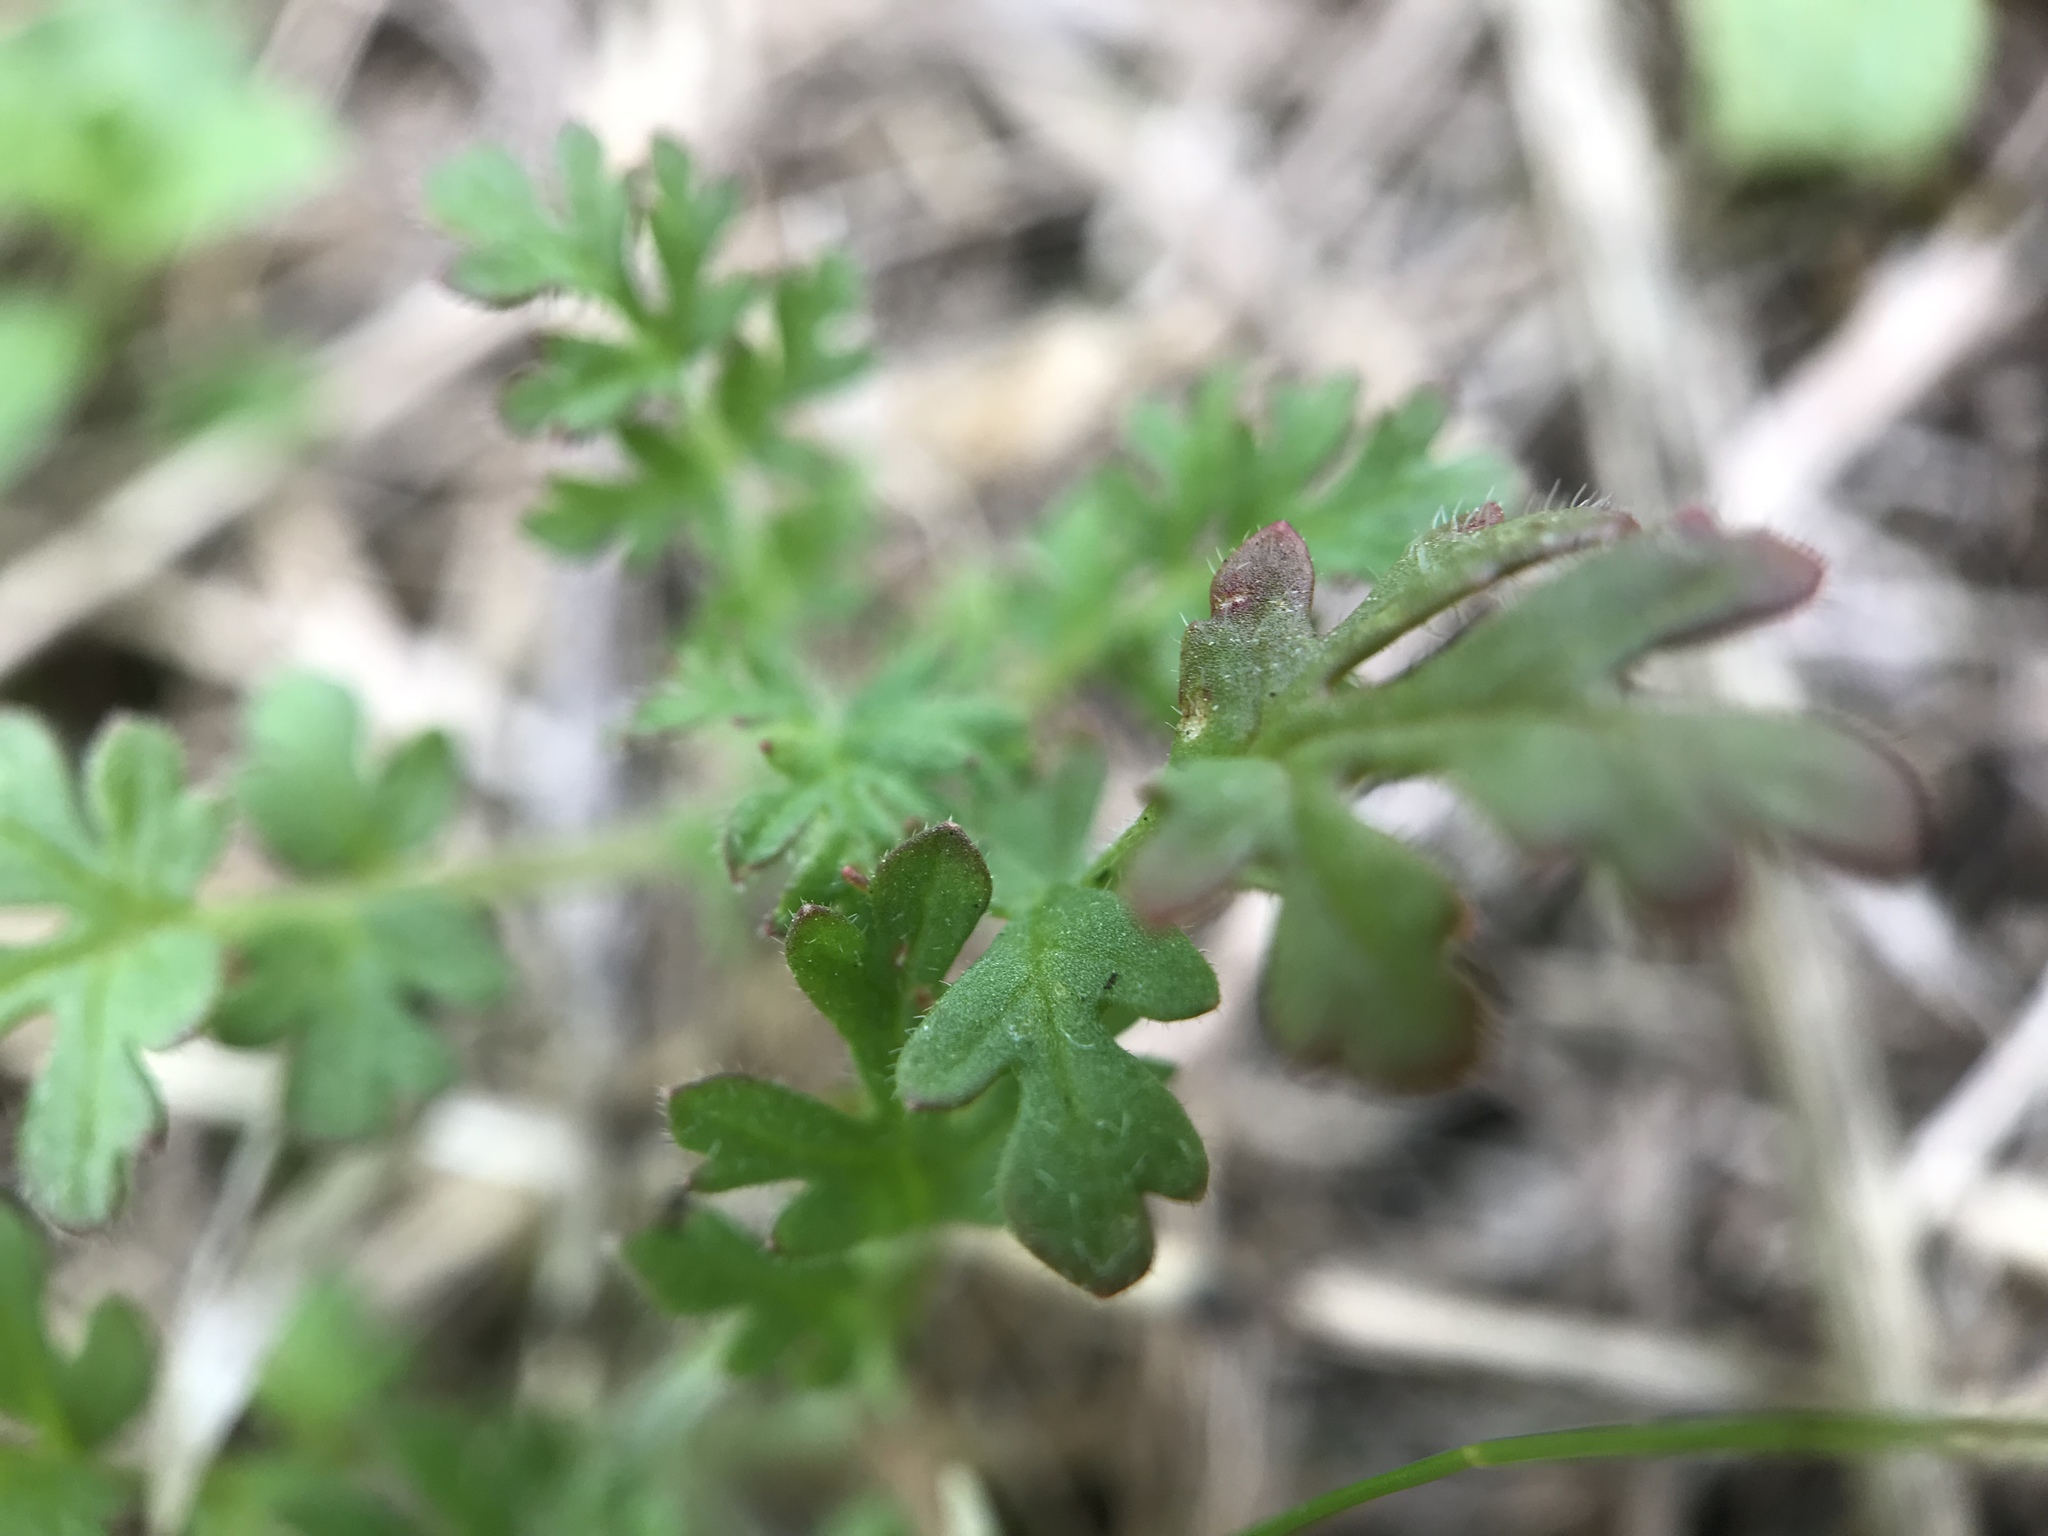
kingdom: Plantae
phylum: Tracheophyta
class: Magnoliopsida
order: Geraniales
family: Geraniaceae
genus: Erodium
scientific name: Erodium cicutarium
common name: Common stork's-bill
